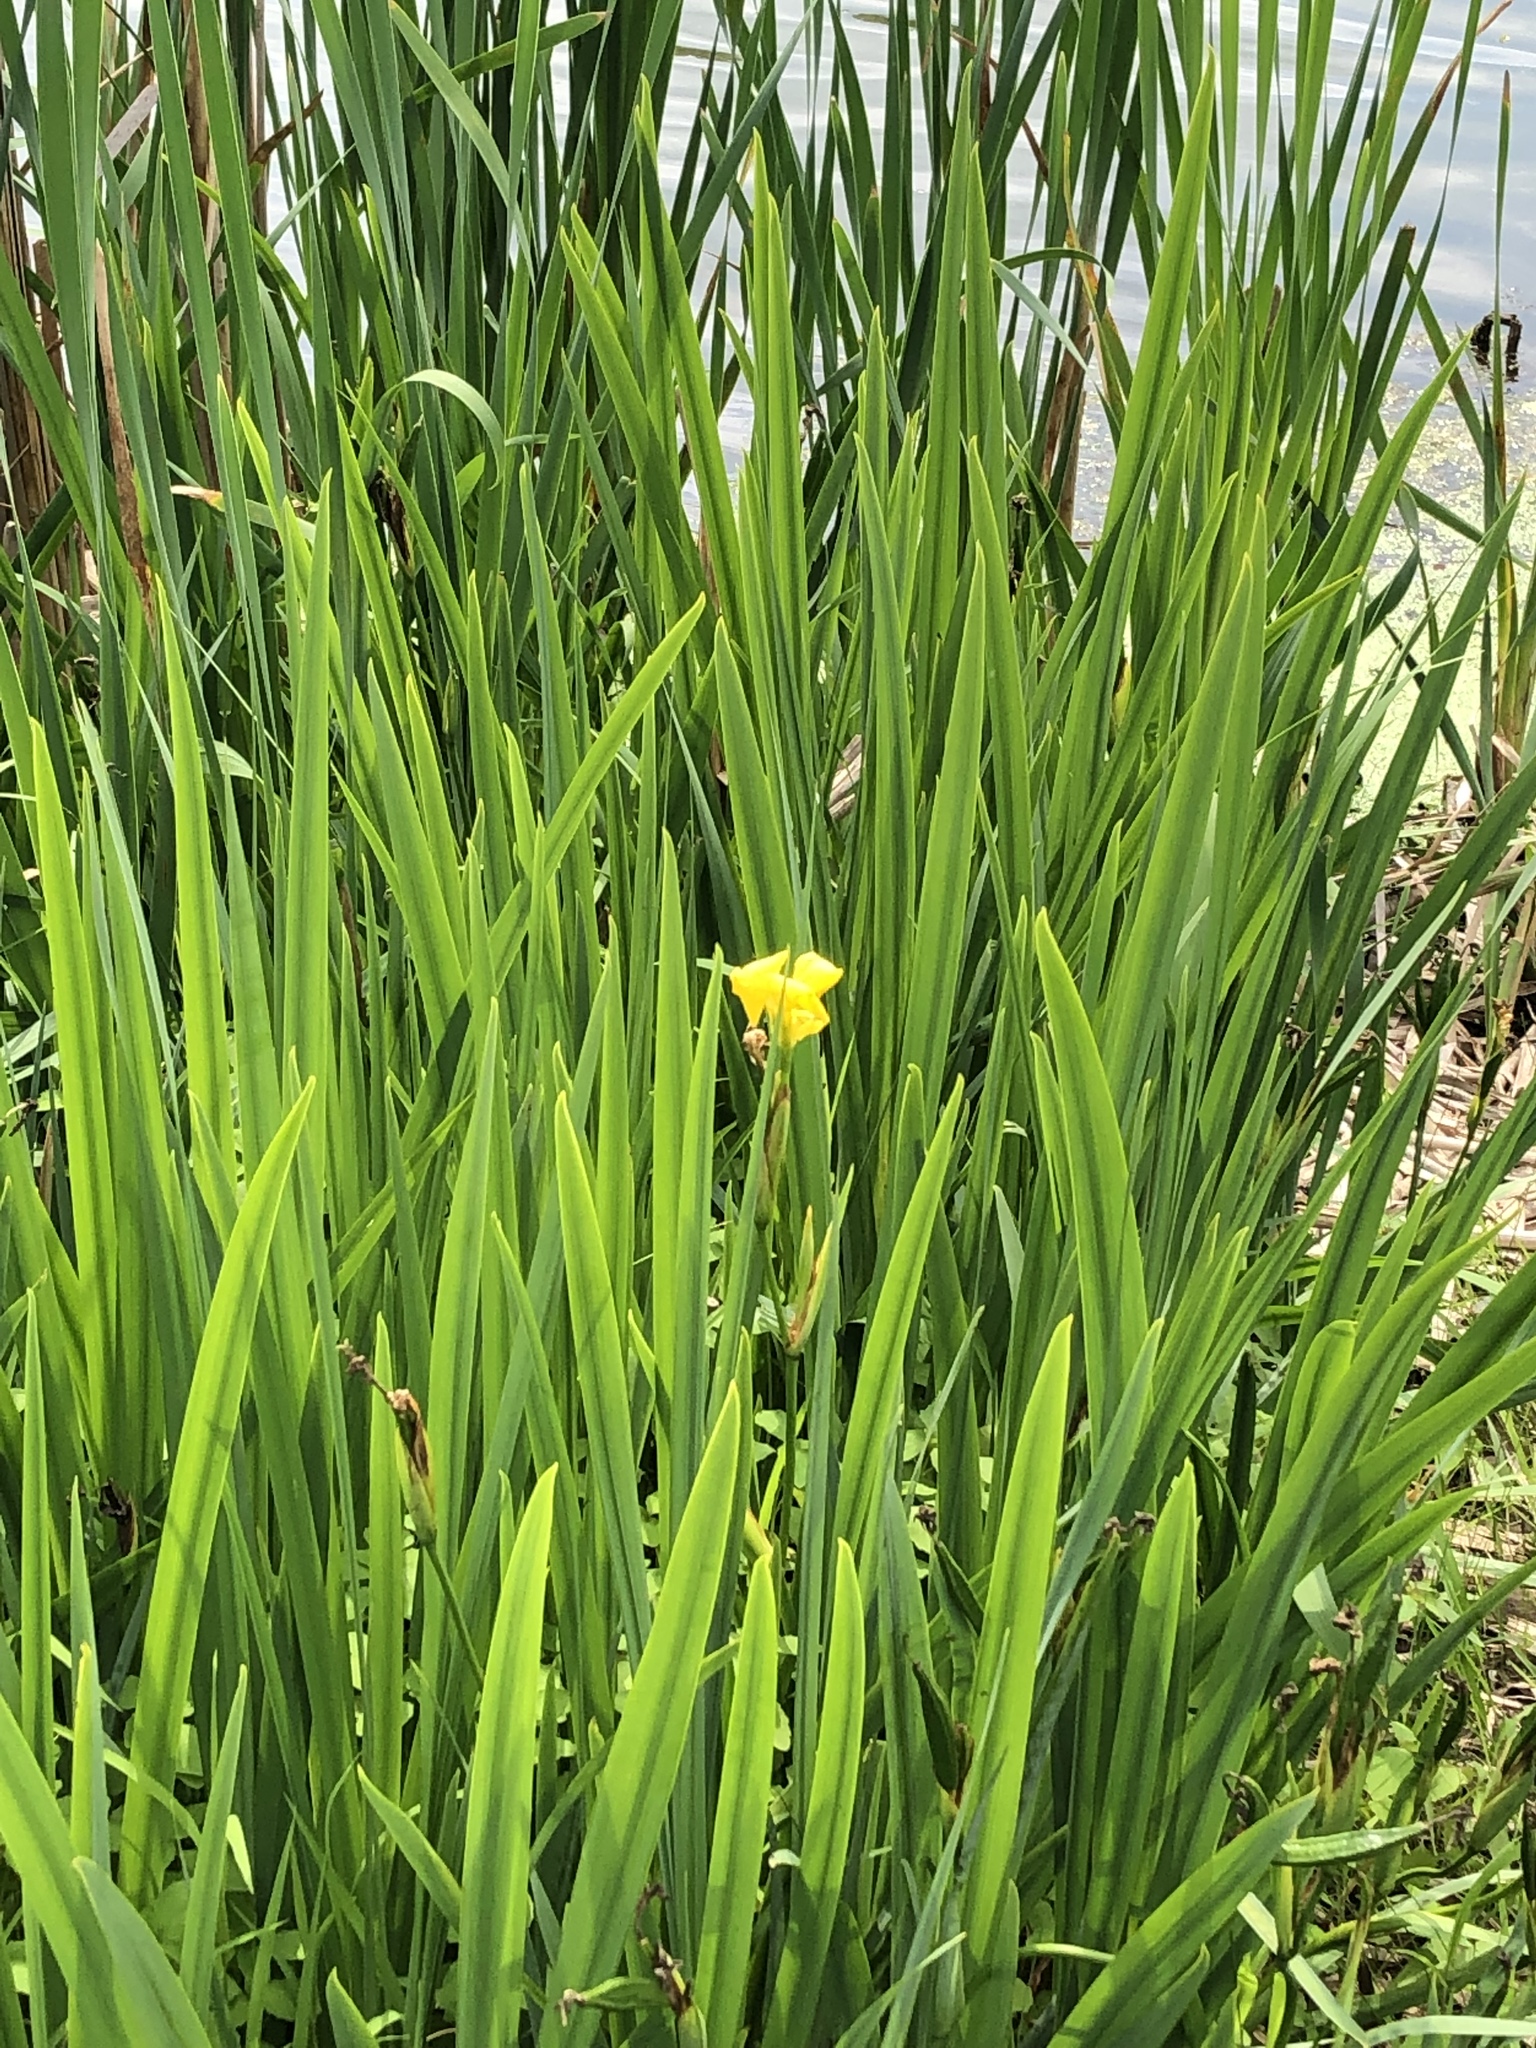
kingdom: Plantae
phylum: Tracheophyta
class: Liliopsida
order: Asparagales
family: Iridaceae
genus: Iris
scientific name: Iris pseudacorus
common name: Yellow flag
